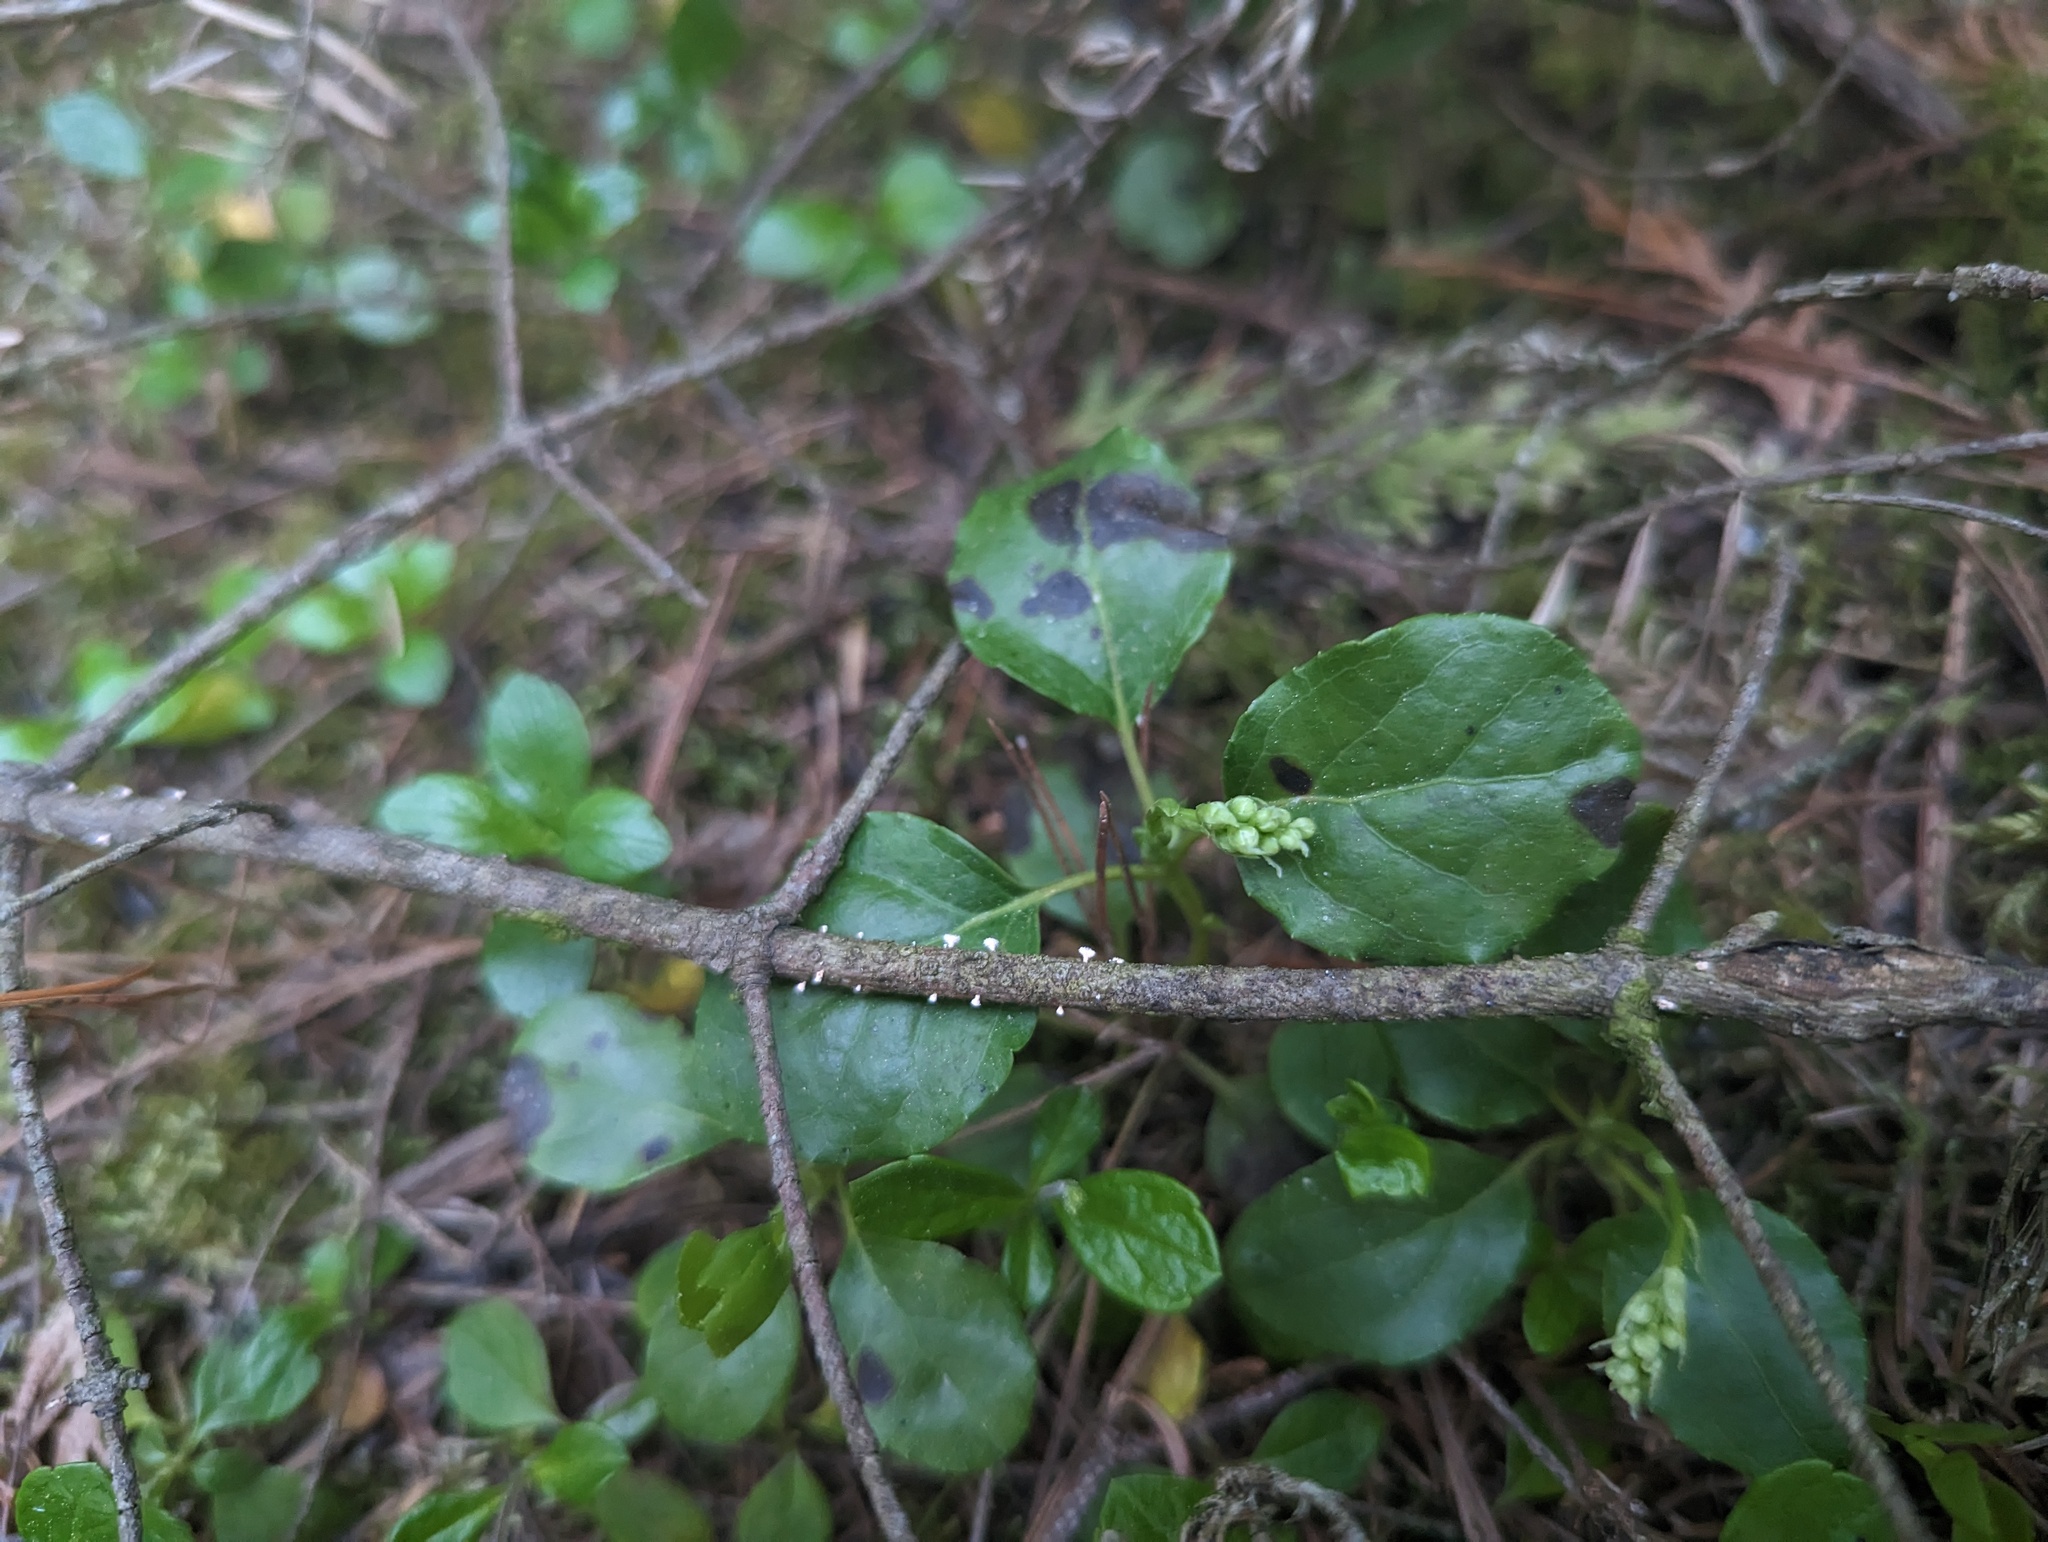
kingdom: Plantae
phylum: Tracheophyta
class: Magnoliopsida
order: Ericales
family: Ericaceae
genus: Orthilia
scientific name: Orthilia secunda
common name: One-sided orthilia
